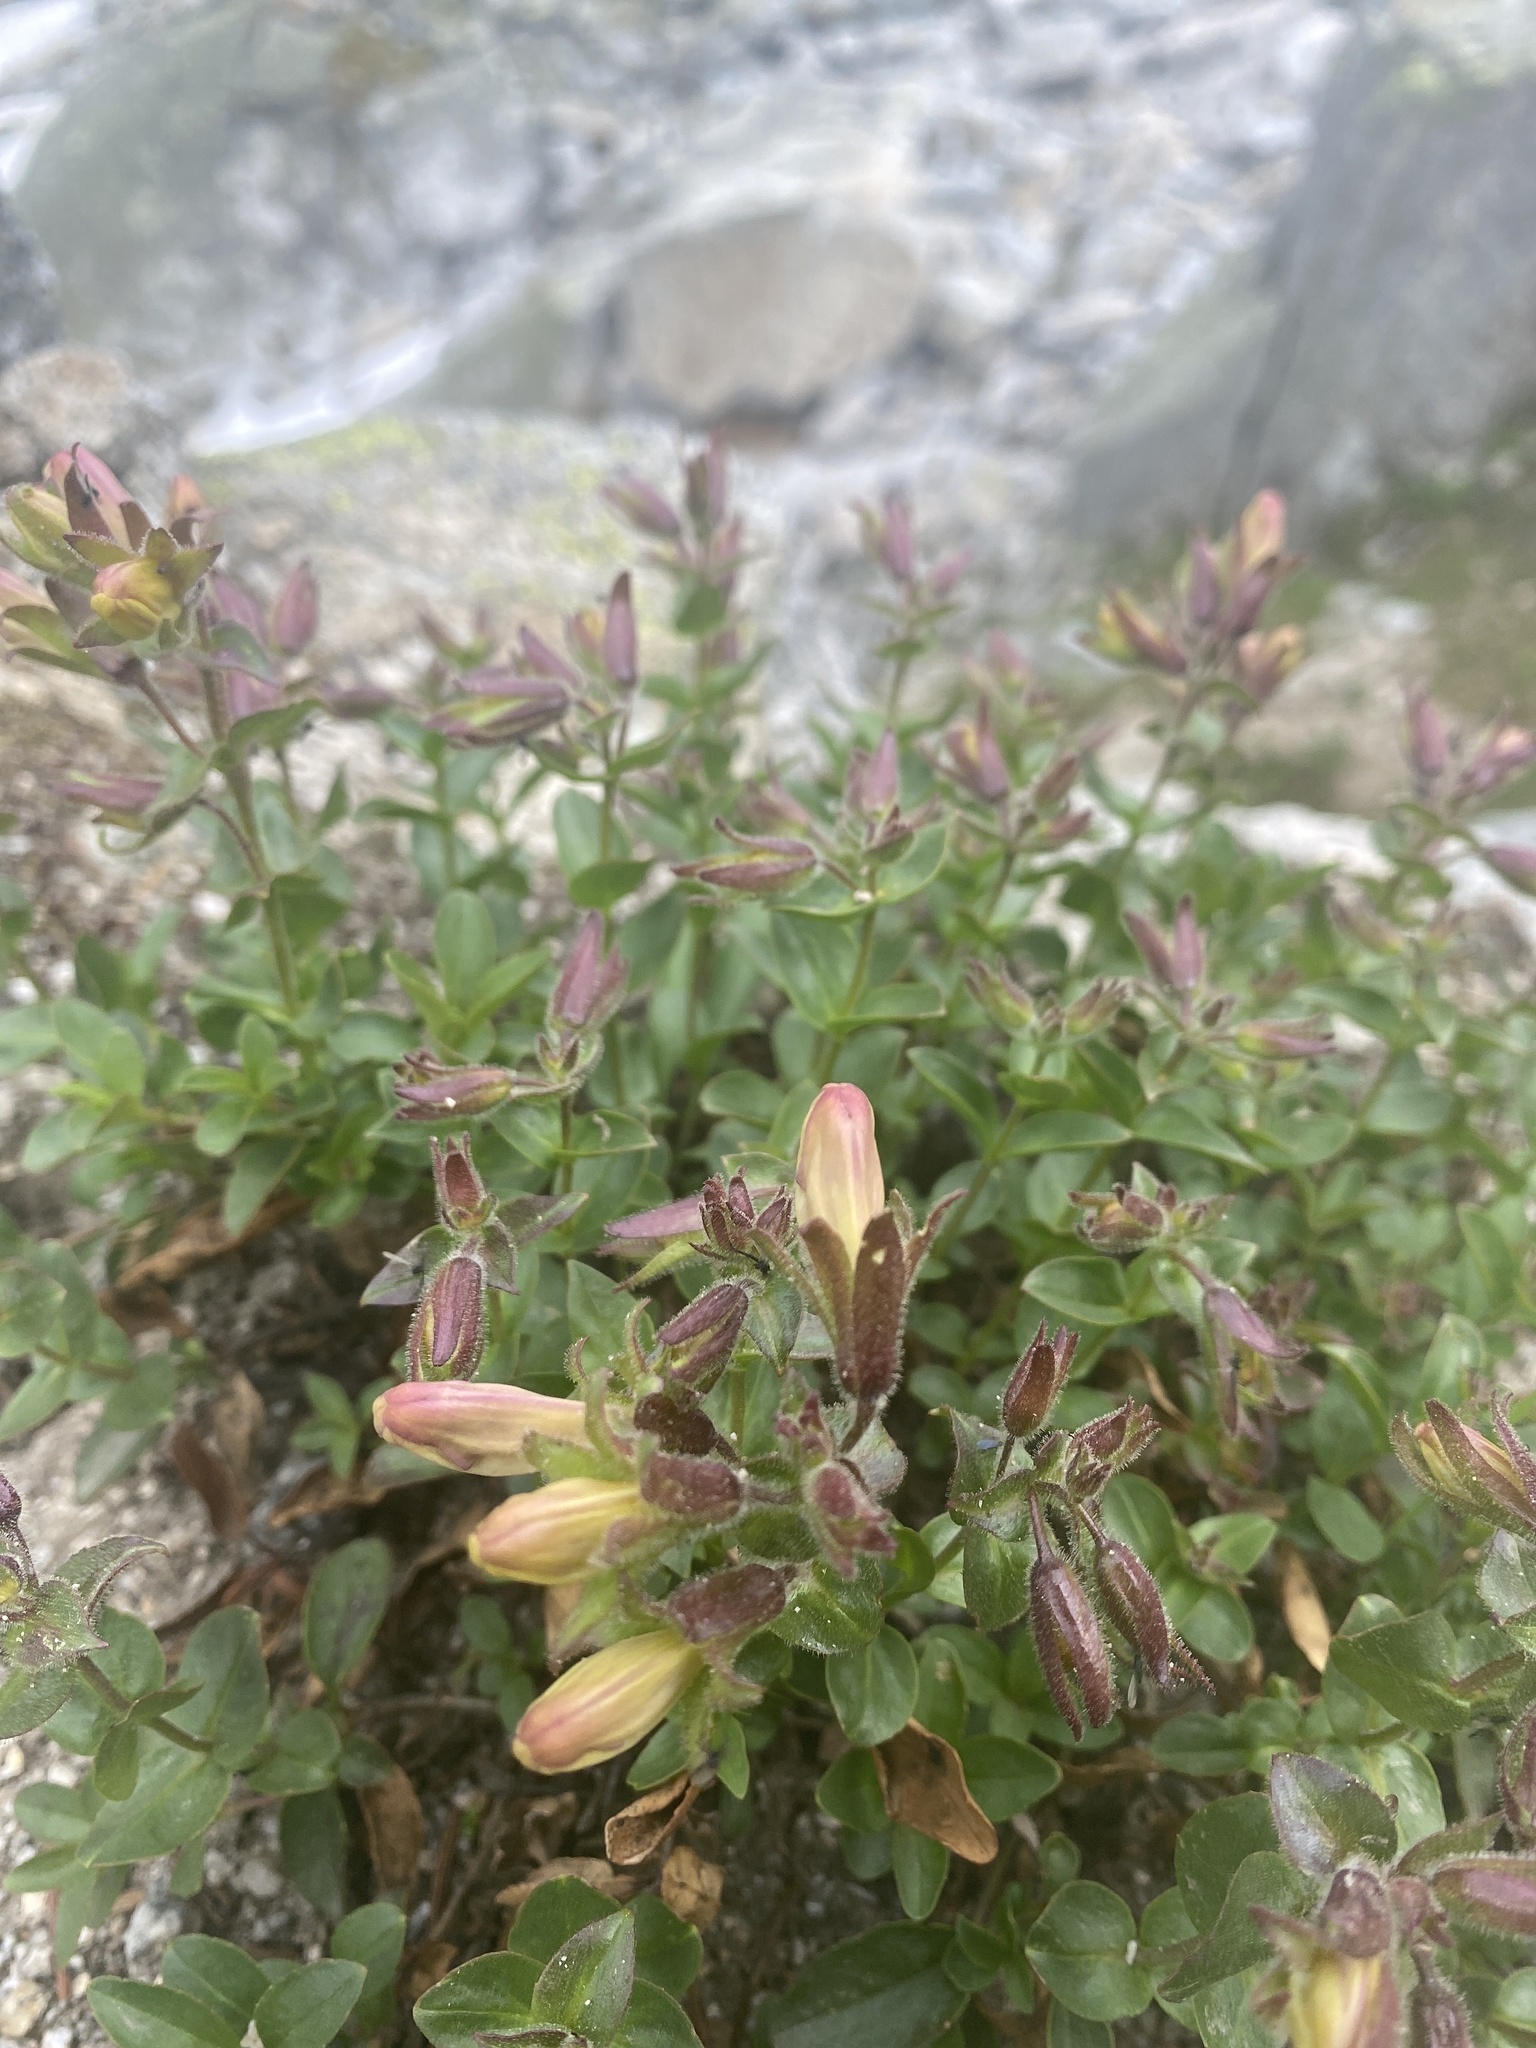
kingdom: Plantae
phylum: Tracheophyta
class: Magnoliopsida
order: Lamiales
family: Plantaginaceae
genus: Penstemon
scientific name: Penstemon ellipticus
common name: Alpine beardtongue
